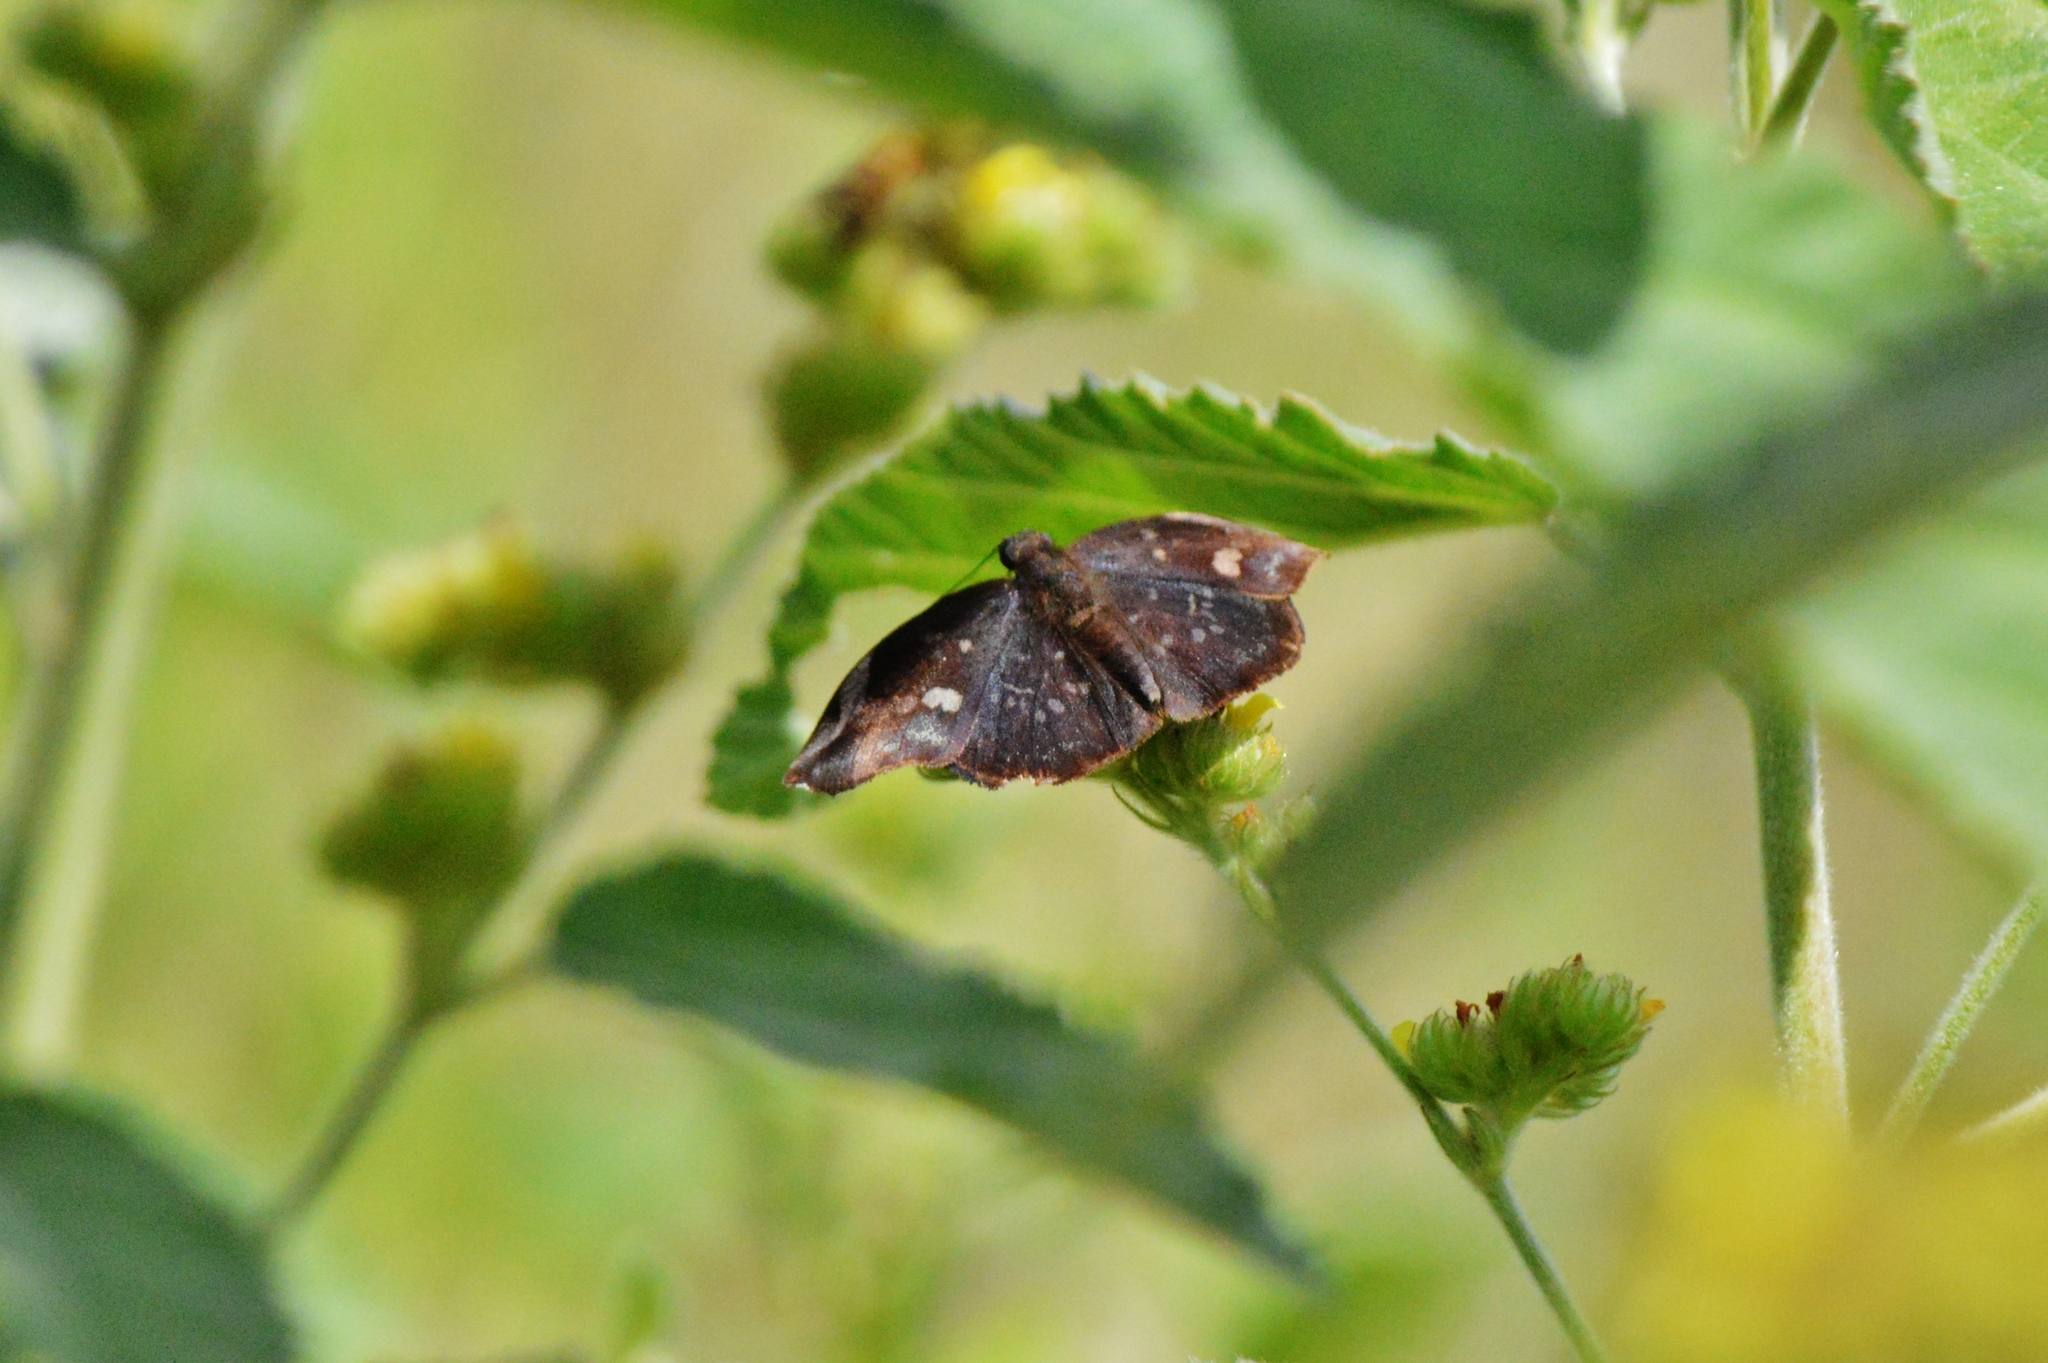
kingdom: Animalia
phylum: Arthropoda
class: Insecta
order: Lepidoptera
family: Hesperiidae
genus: Achlyodes
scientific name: Achlyodes thraso
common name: Sickle-winged skipper
